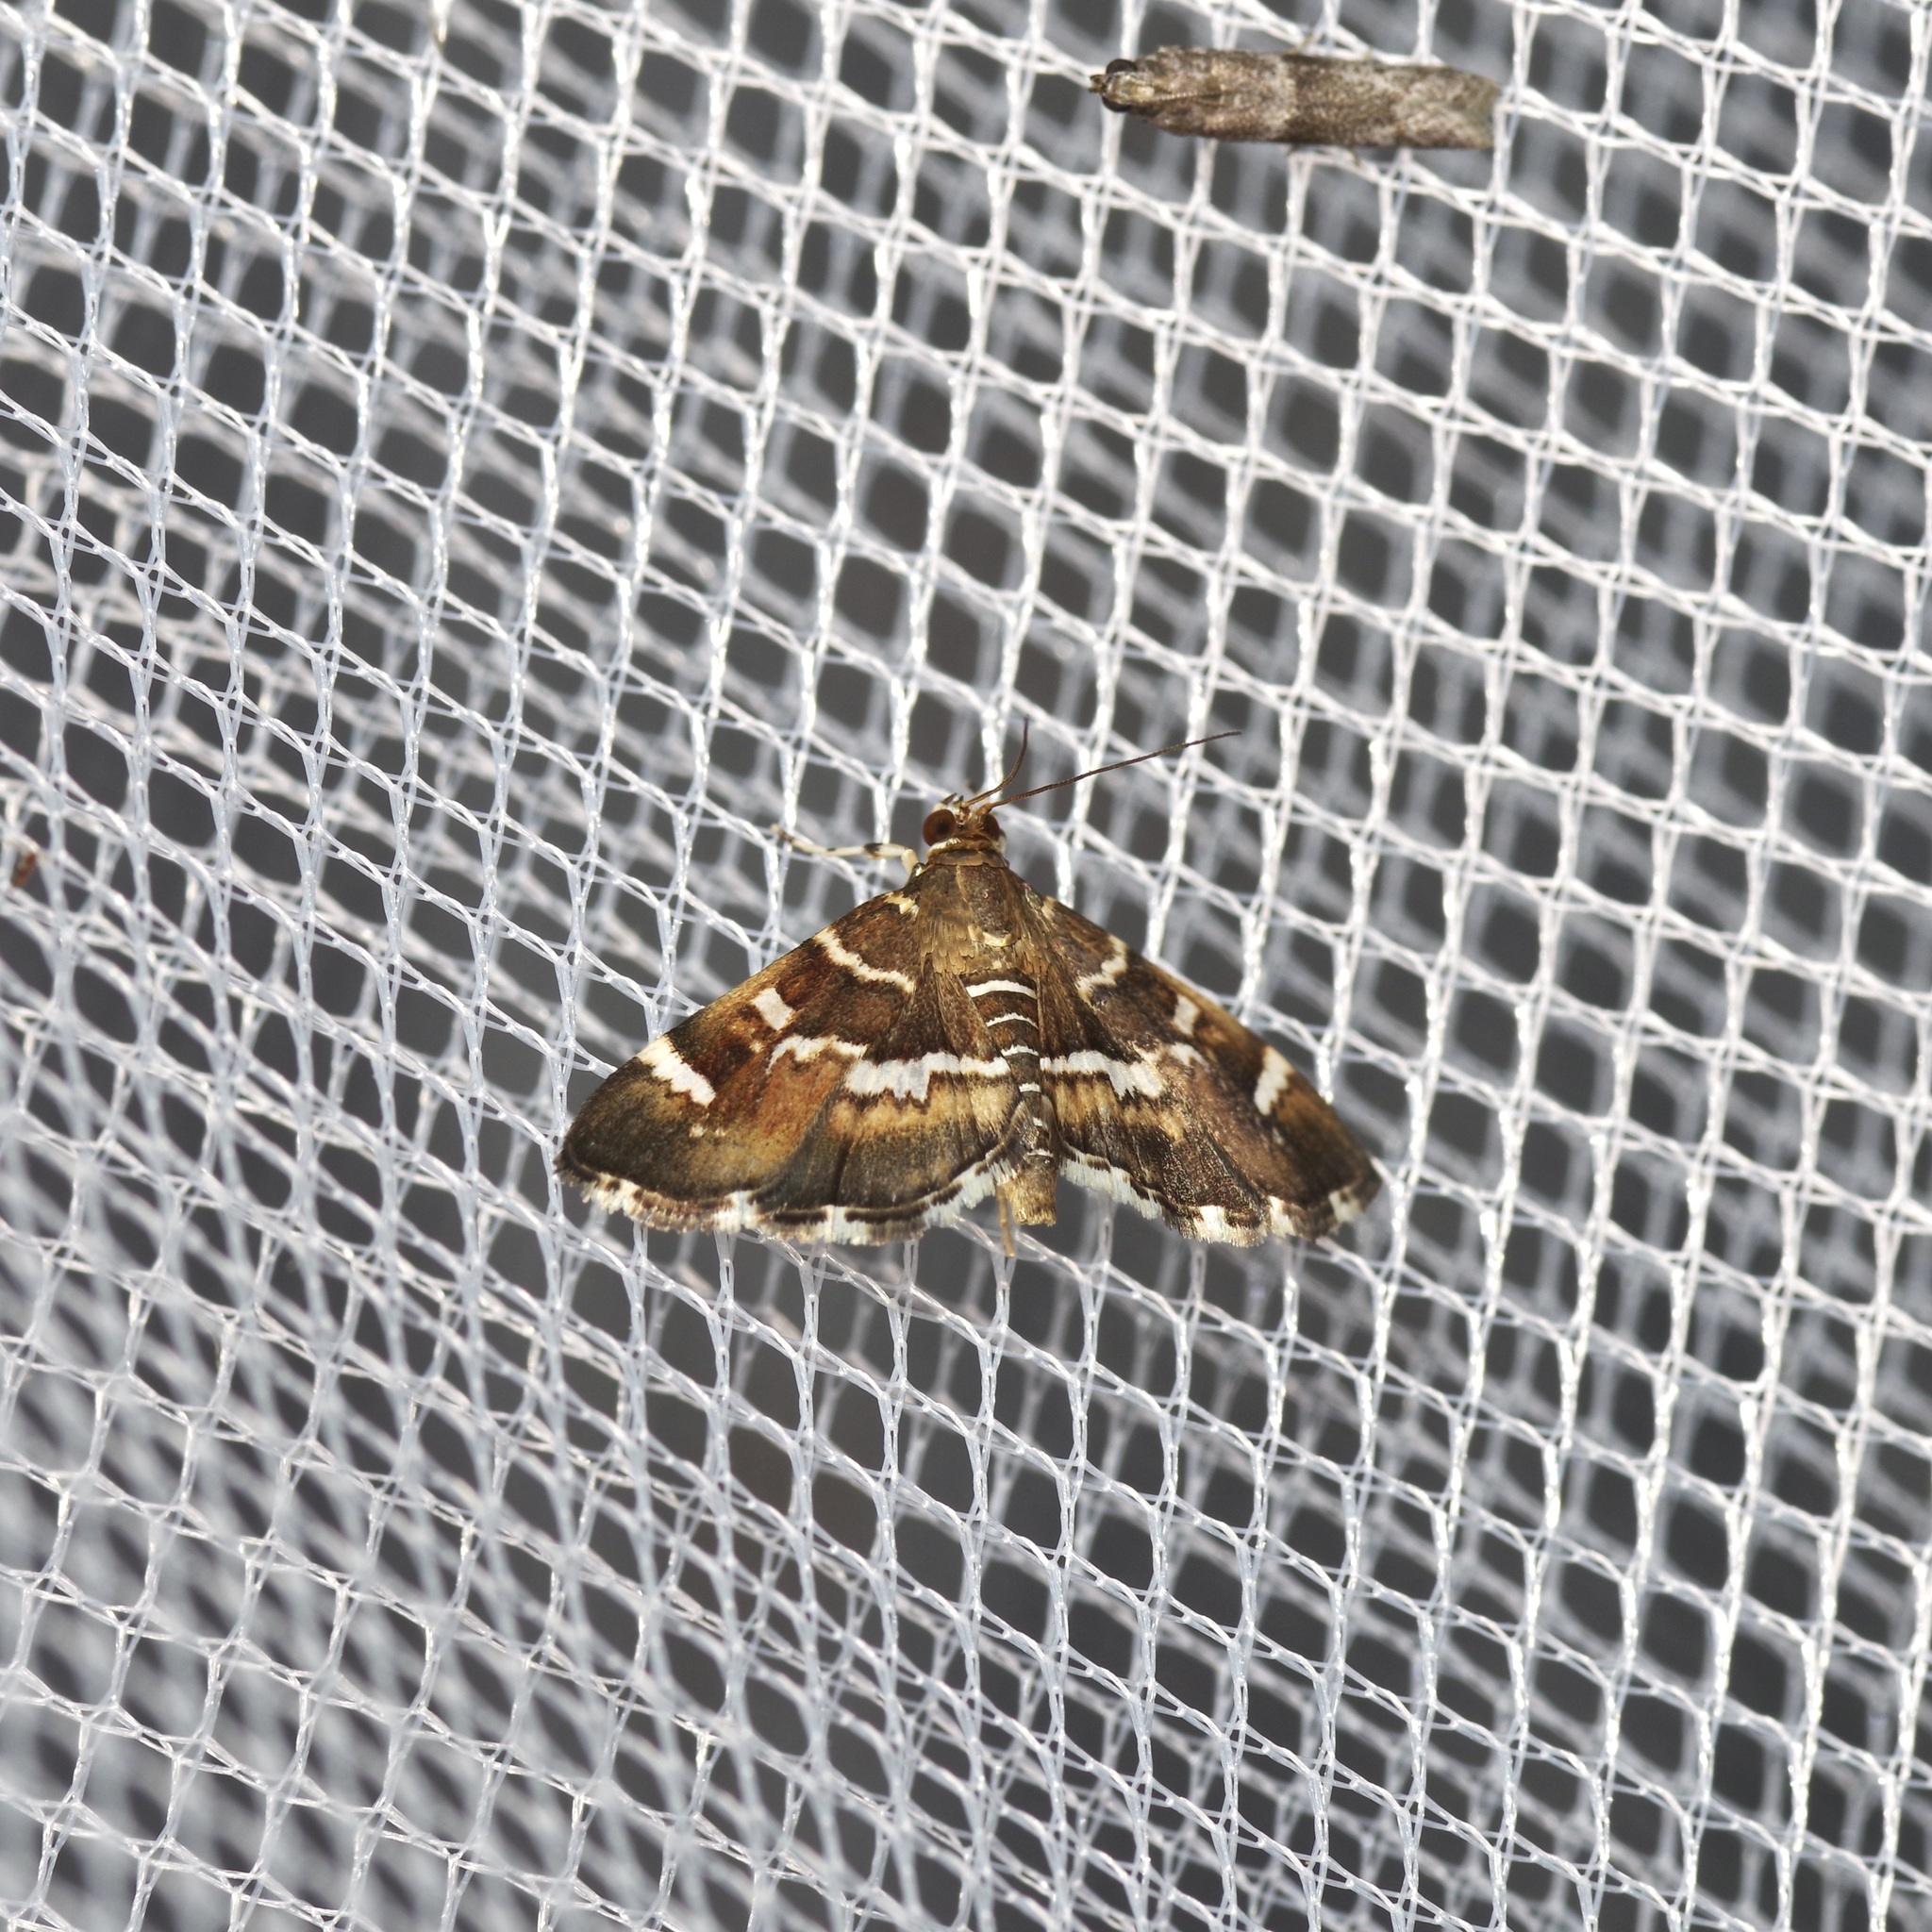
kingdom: Animalia
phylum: Arthropoda
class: Insecta
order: Lepidoptera
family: Crambidae
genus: Hymenia
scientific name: Hymenia perspectalis
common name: Spotted beet webworm
